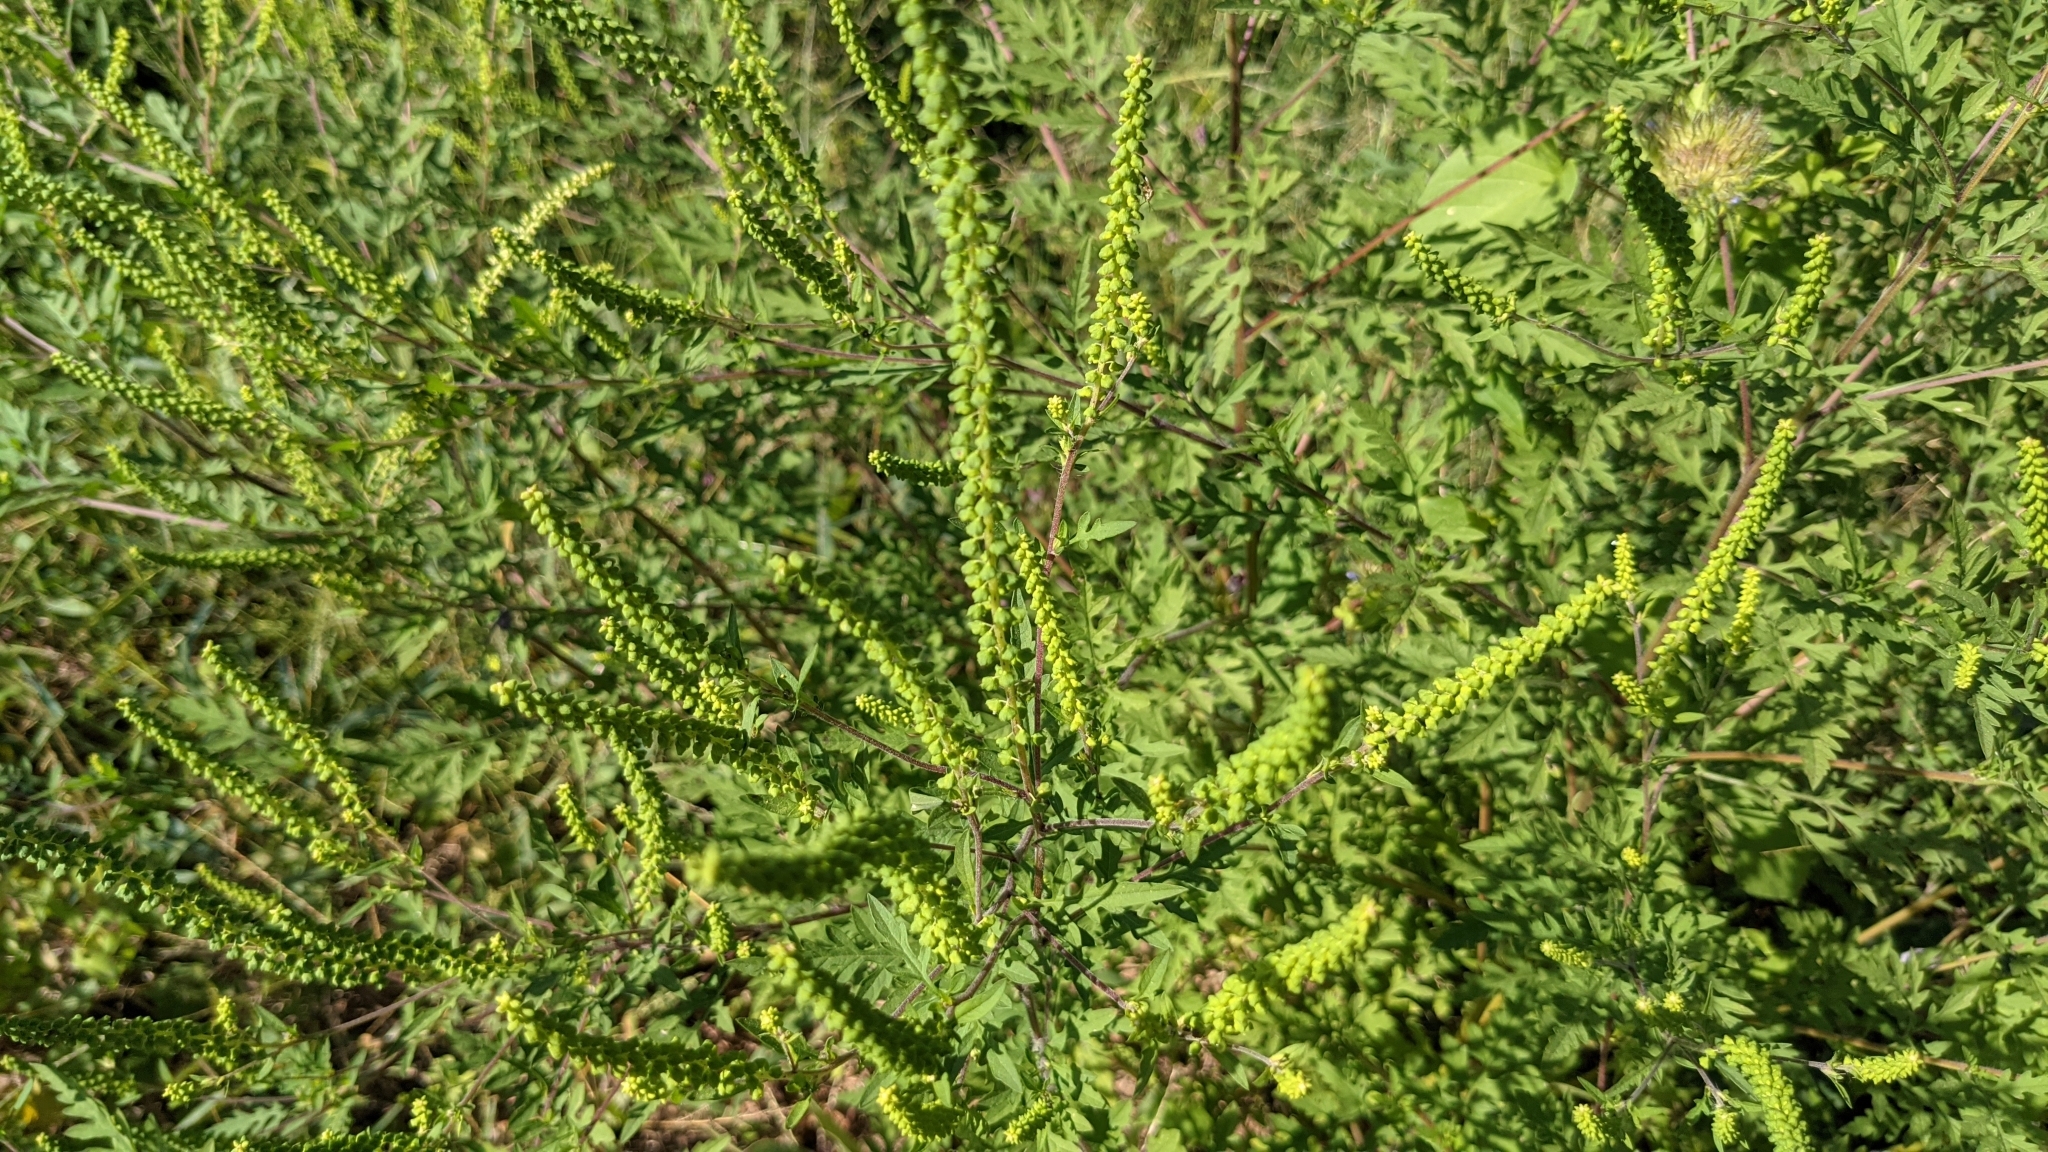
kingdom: Plantae
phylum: Tracheophyta
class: Magnoliopsida
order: Asterales
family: Asteraceae
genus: Ambrosia
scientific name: Ambrosia artemisiifolia
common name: Annual ragweed
